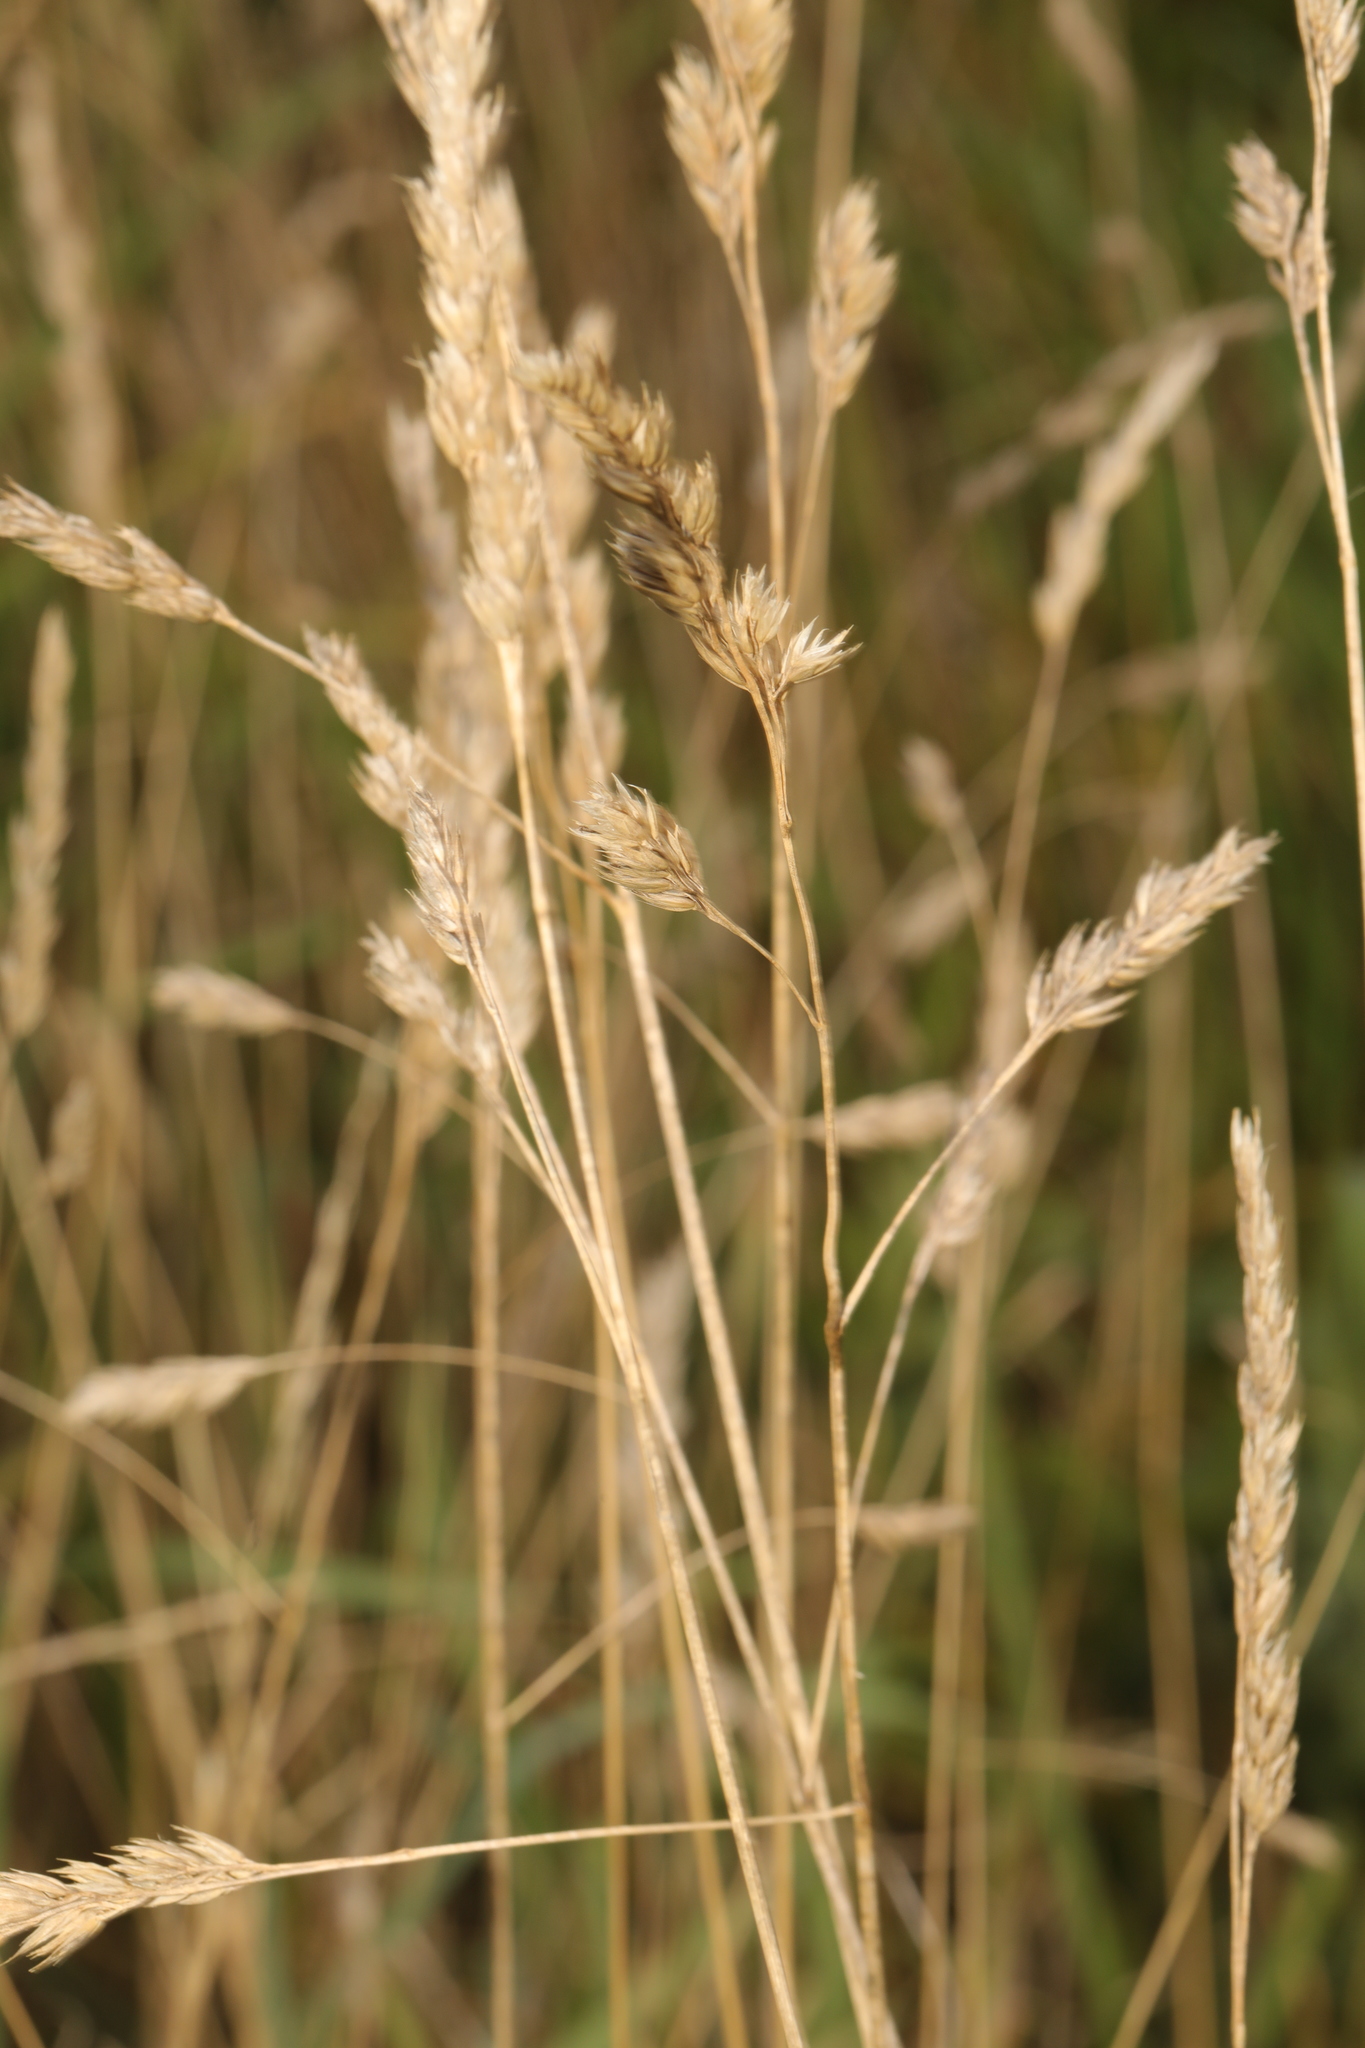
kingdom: Plantae
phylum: Tracheophyta
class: Liliopsida
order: Poales
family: Poaceae
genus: Dactylis
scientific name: Dactylis glomerata
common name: Orchardgrass
